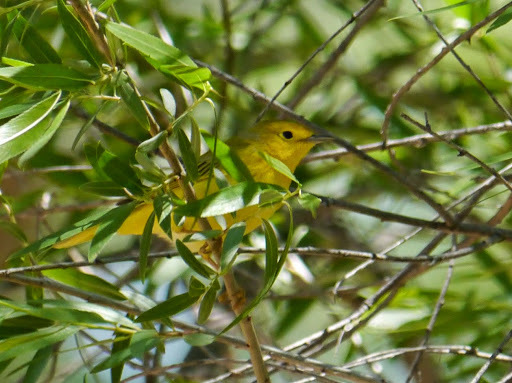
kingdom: Animalia
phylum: Chordata
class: Aves
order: Passeriformes
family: Parulidae
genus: Setophaga
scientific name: Setophaga petechia
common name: Yellow warbler
